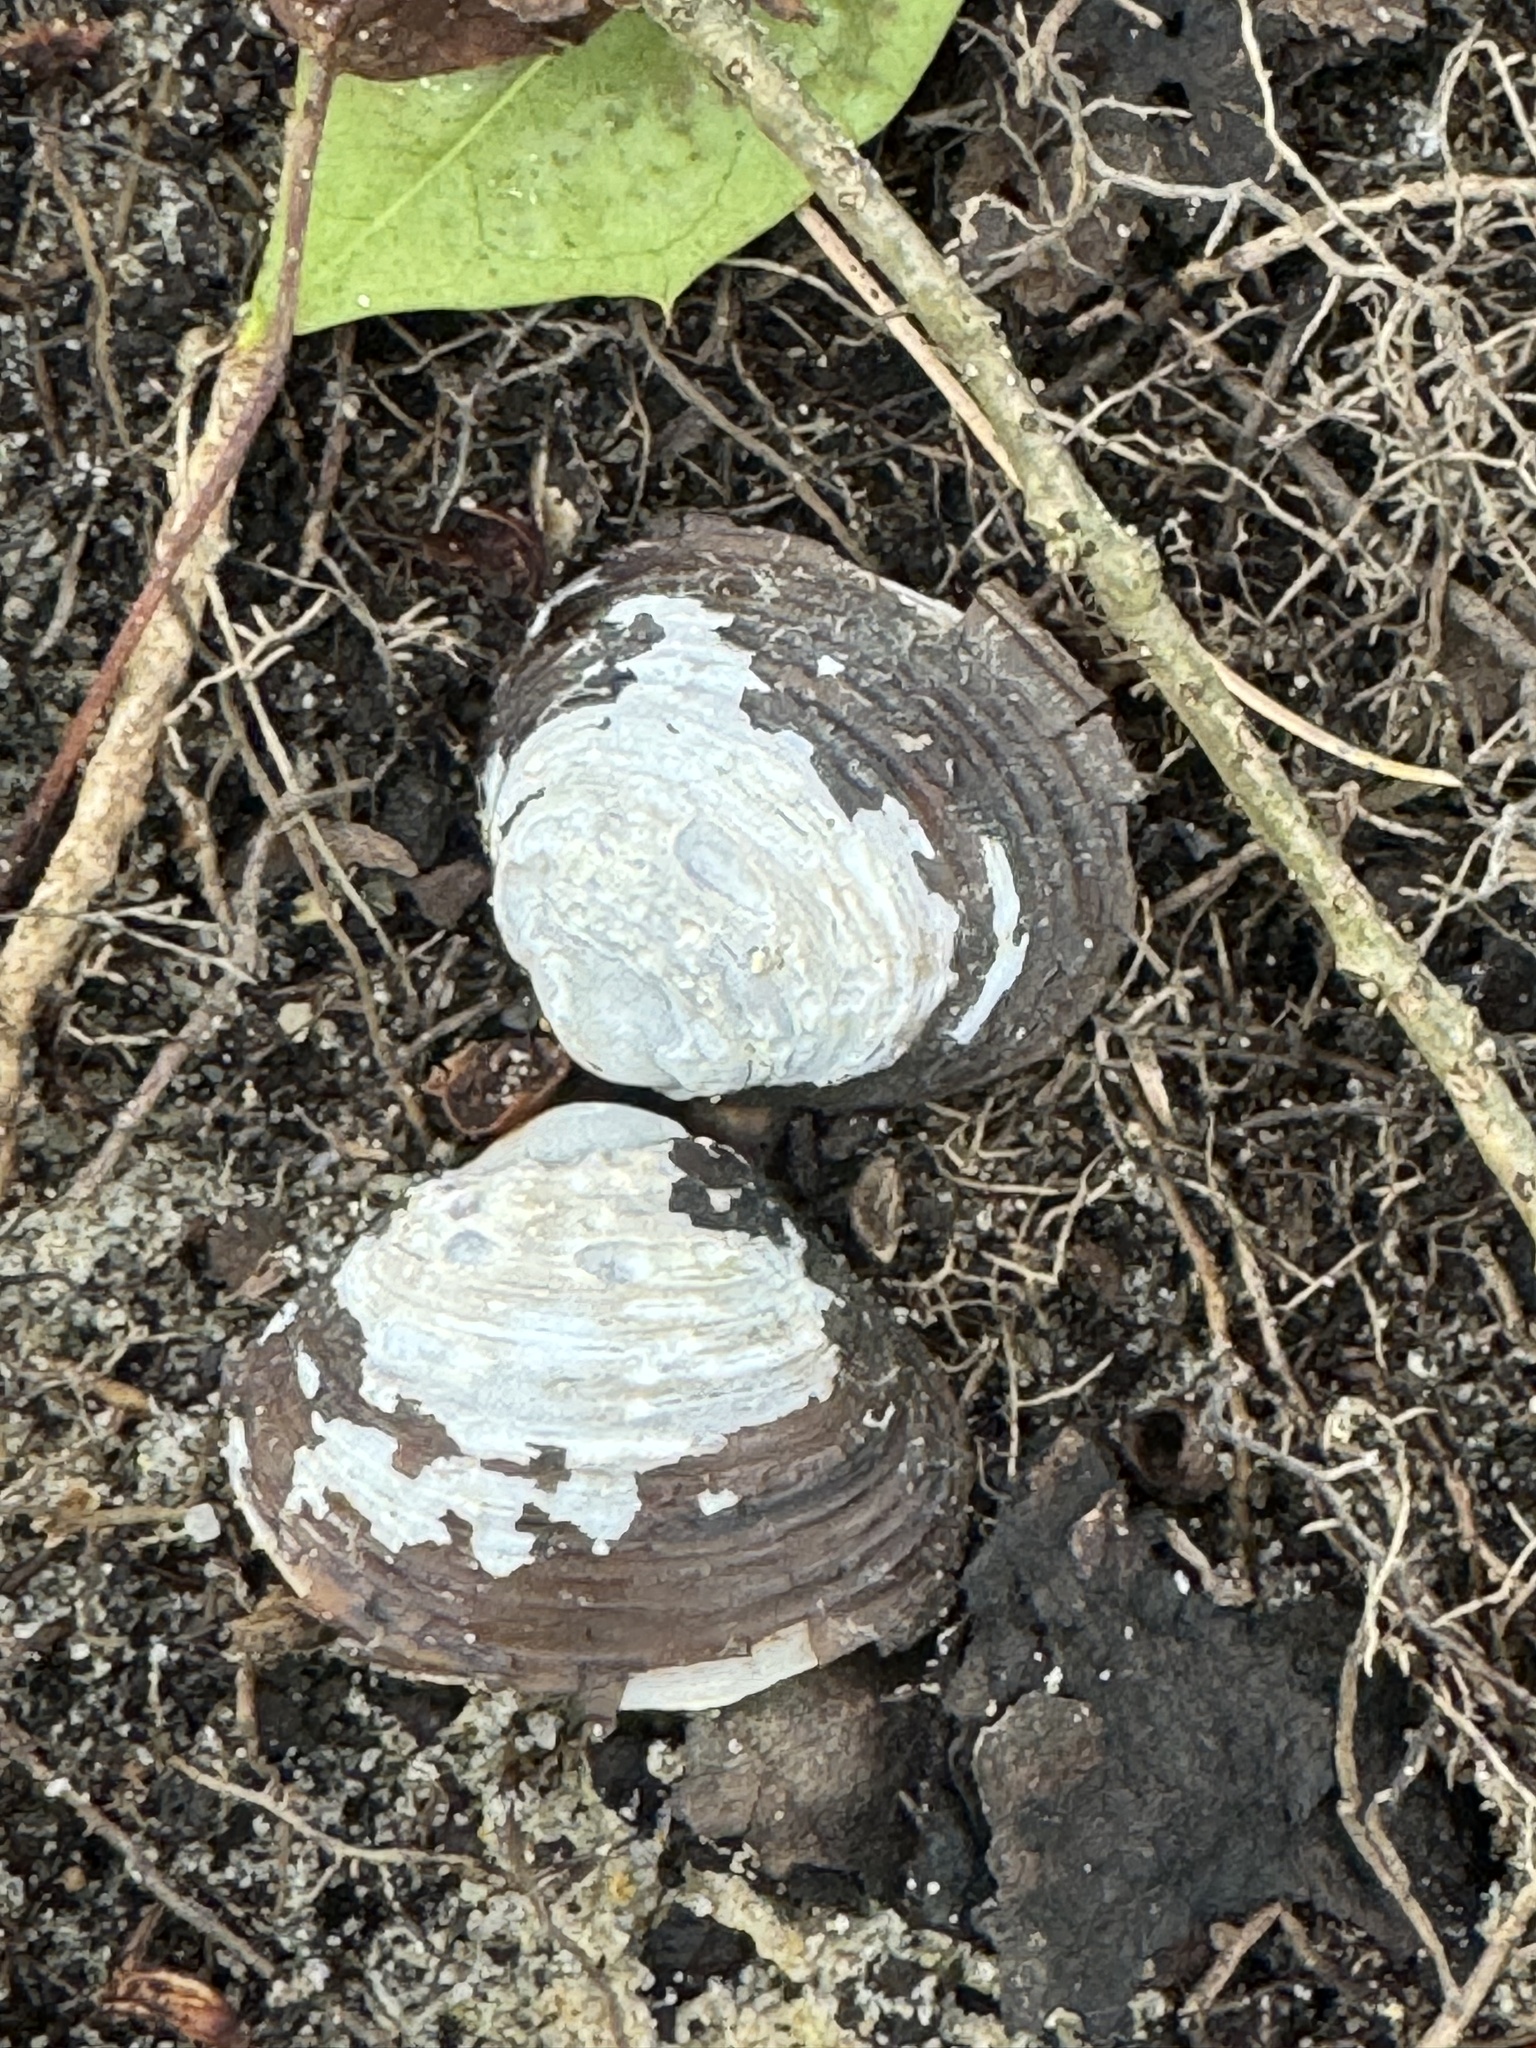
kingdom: Animalia
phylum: Mollusca
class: Bivalvia
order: Venerida
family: Cyrenidae
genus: Corbicula
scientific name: Corbicula fluminea
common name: Asian clam
